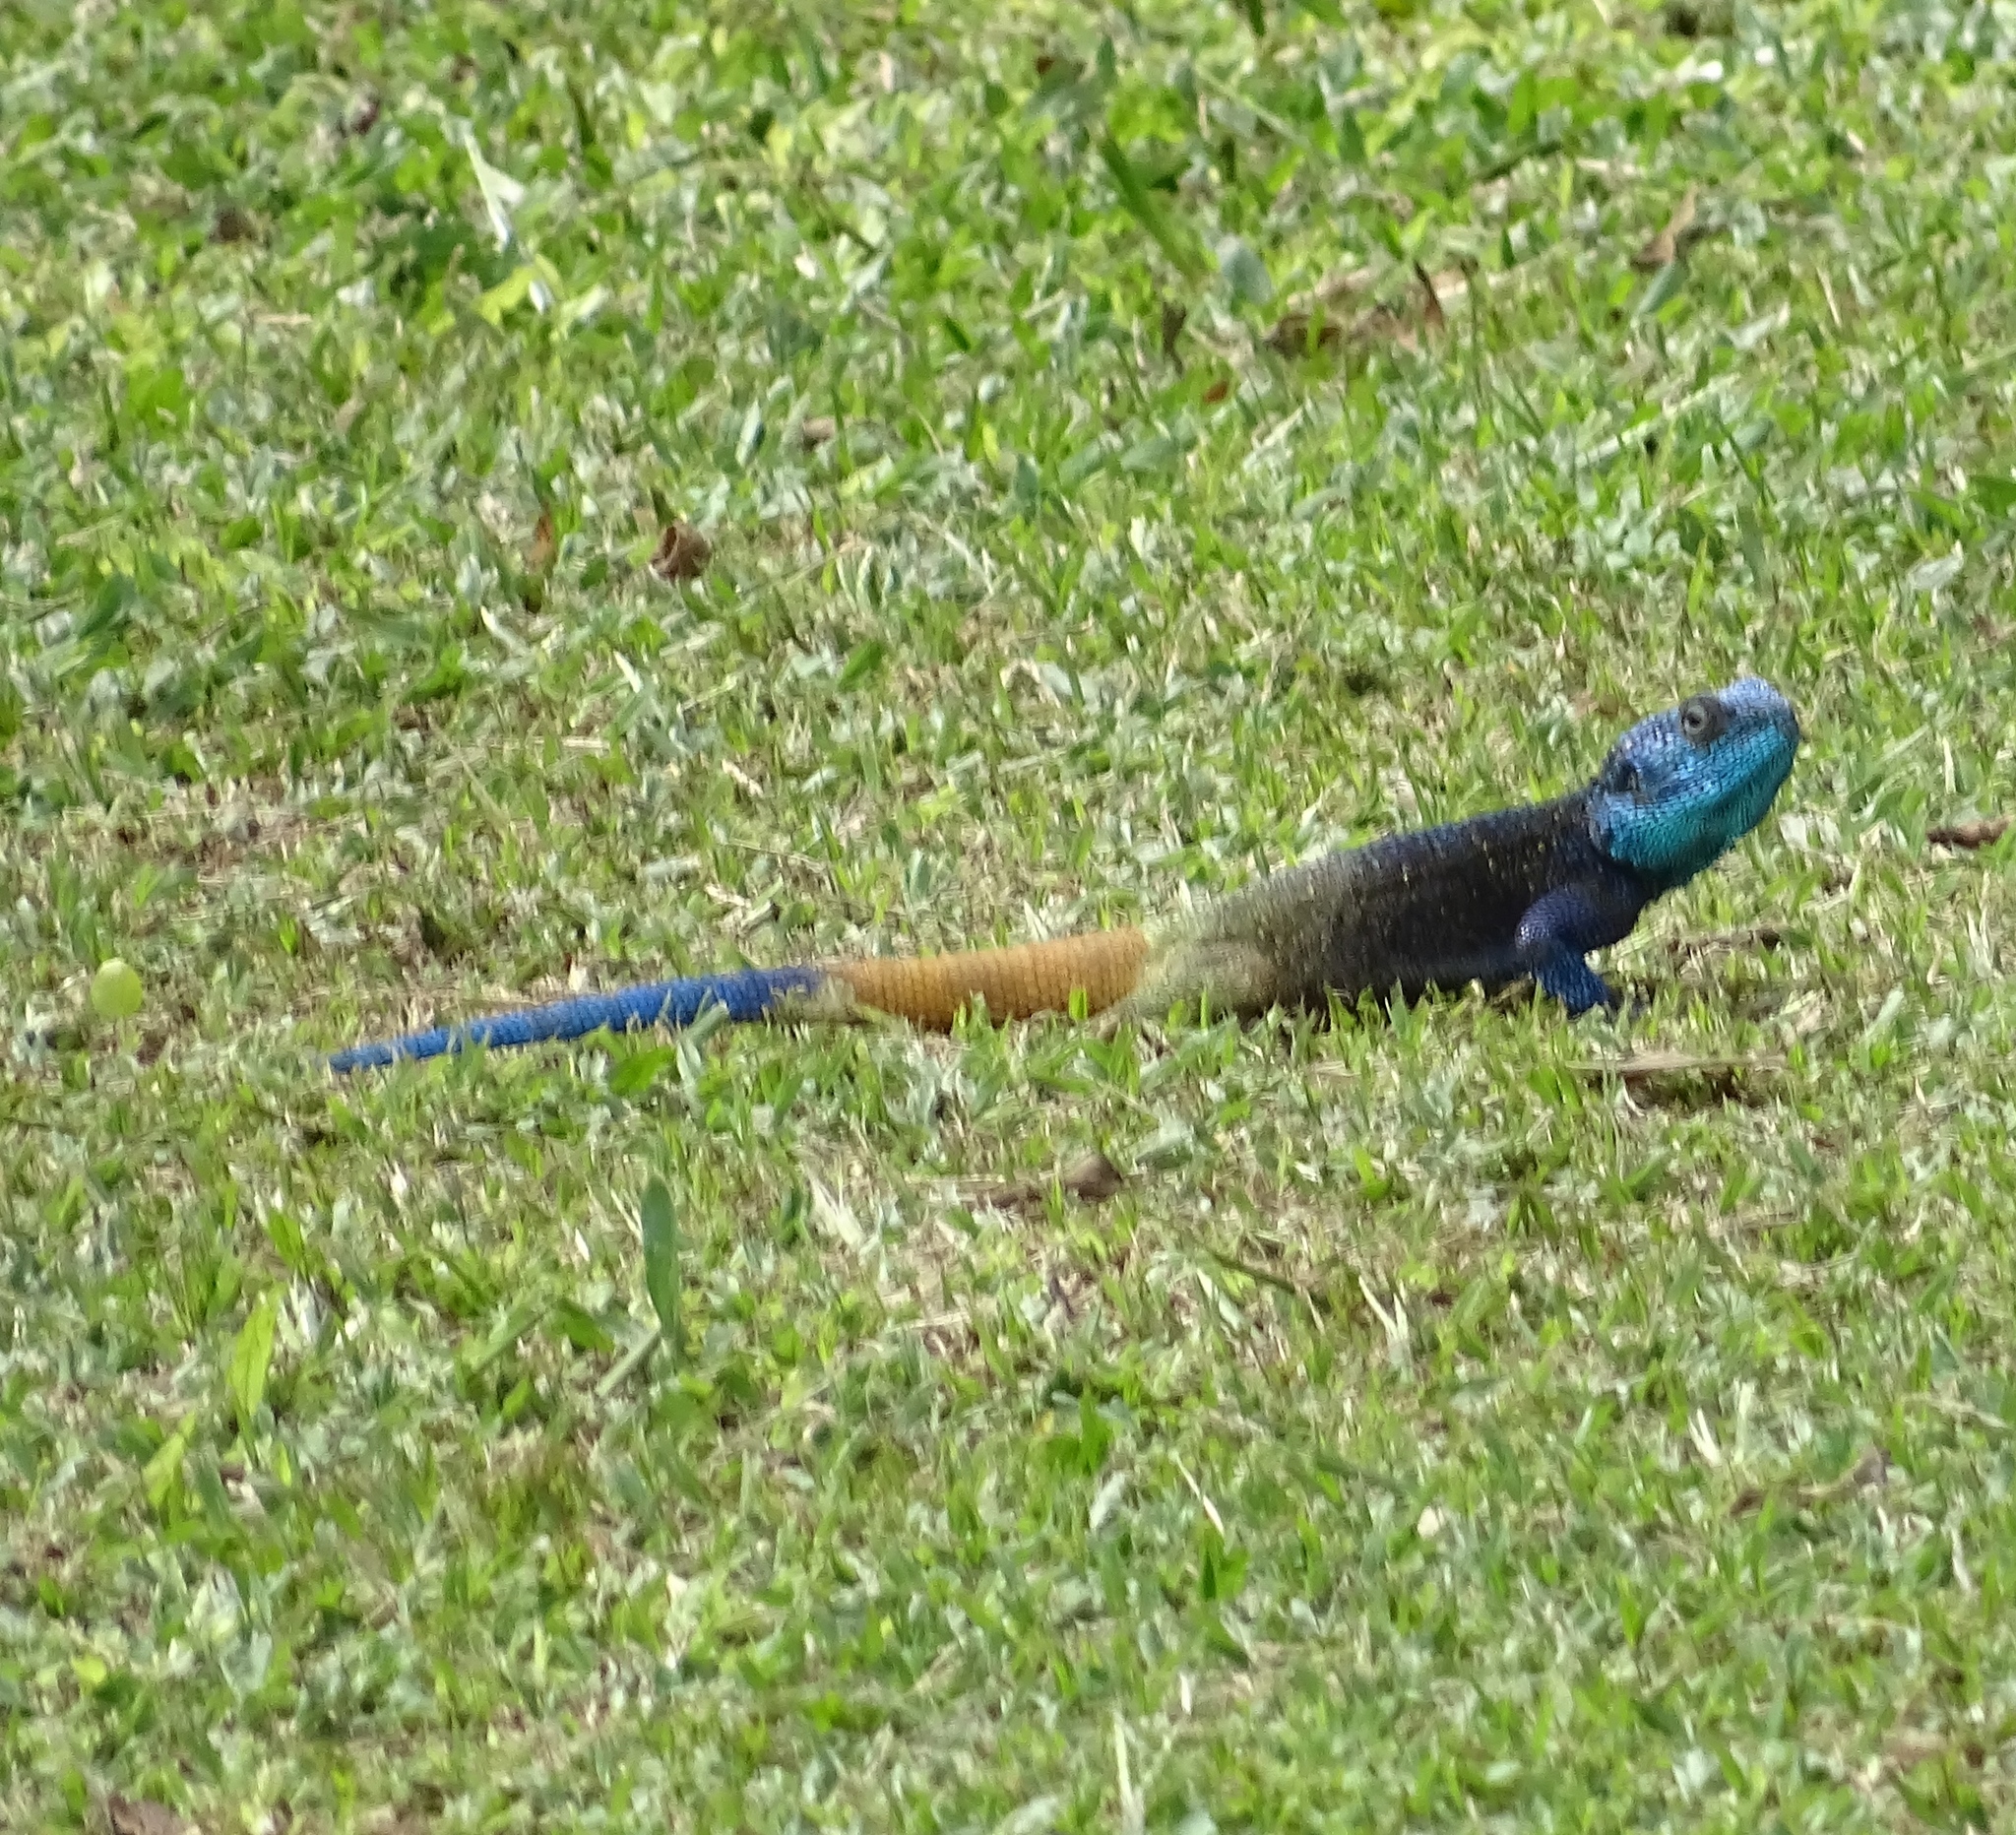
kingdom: Animalia
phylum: Chordata
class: Squamata
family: Agamidae
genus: Acanthocercus
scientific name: Acanthocercus ugandaensis
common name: Uganda blue-headed tree agama
